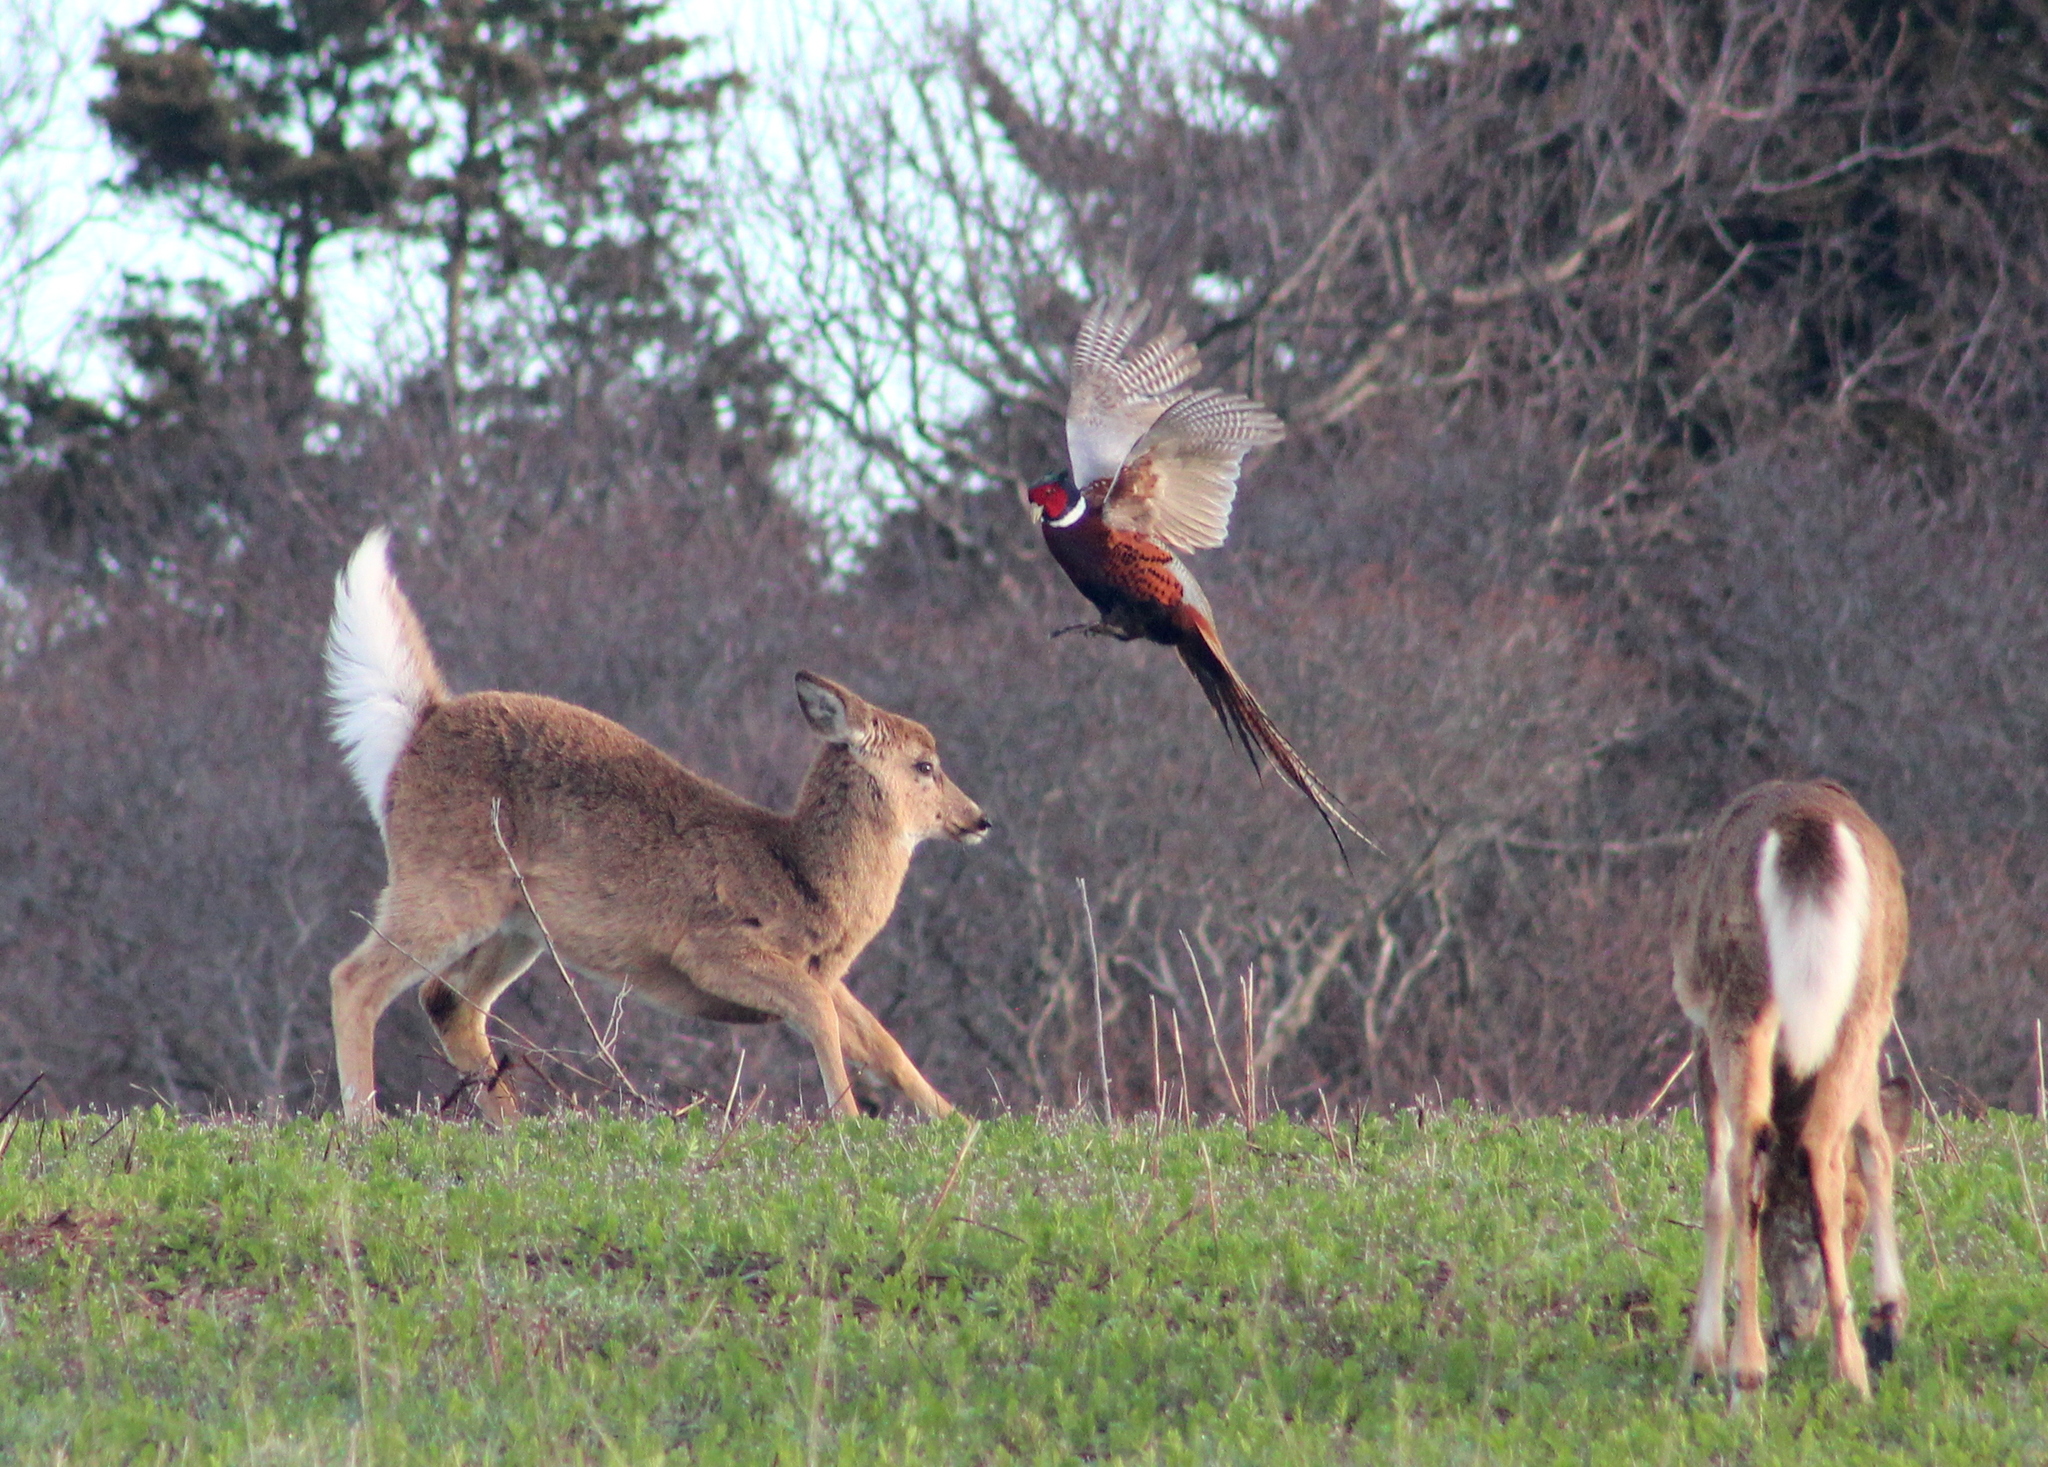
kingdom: Animalia
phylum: Chordata
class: Aves
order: Galliformes
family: Phasianidae
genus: Phasianus
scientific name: Phasianus colchicus
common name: Common pheasant
